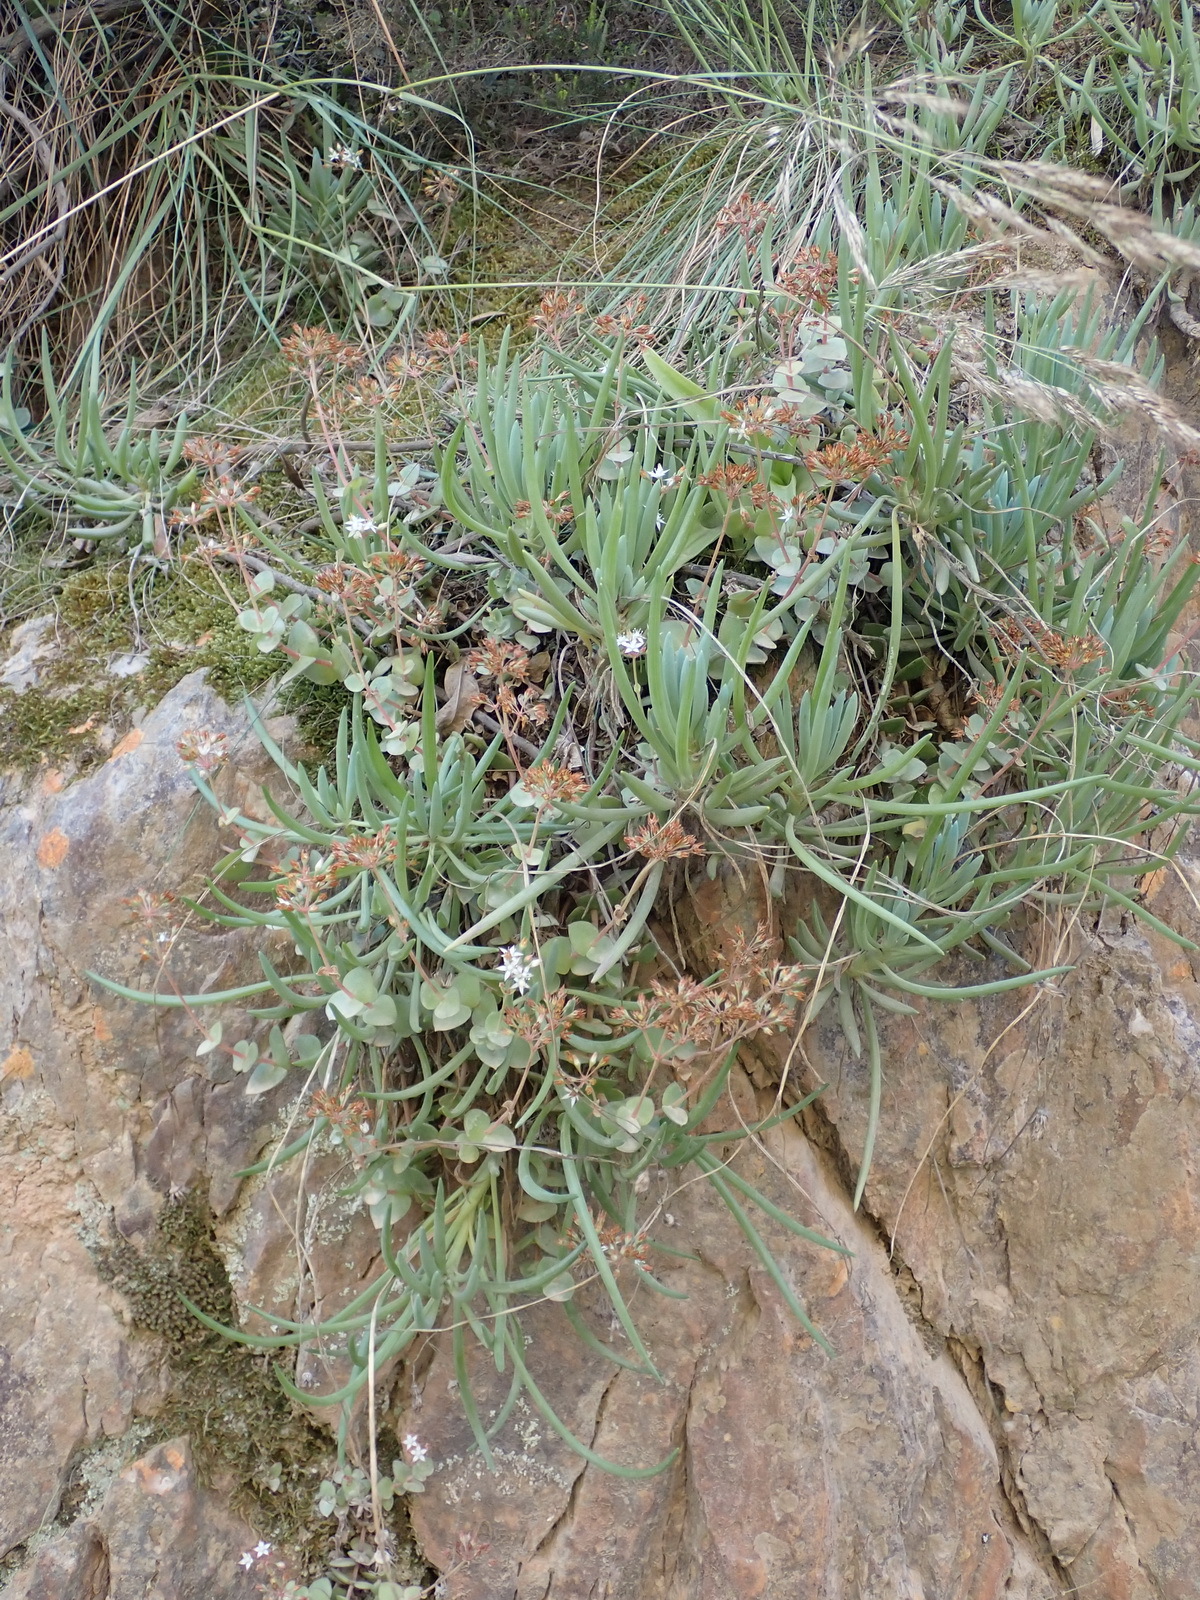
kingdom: Plantae
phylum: Tracheophyta
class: Magnoliopsida
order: Saxifragales
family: Crassulaceae
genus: Crassula
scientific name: Crassula pellucida
